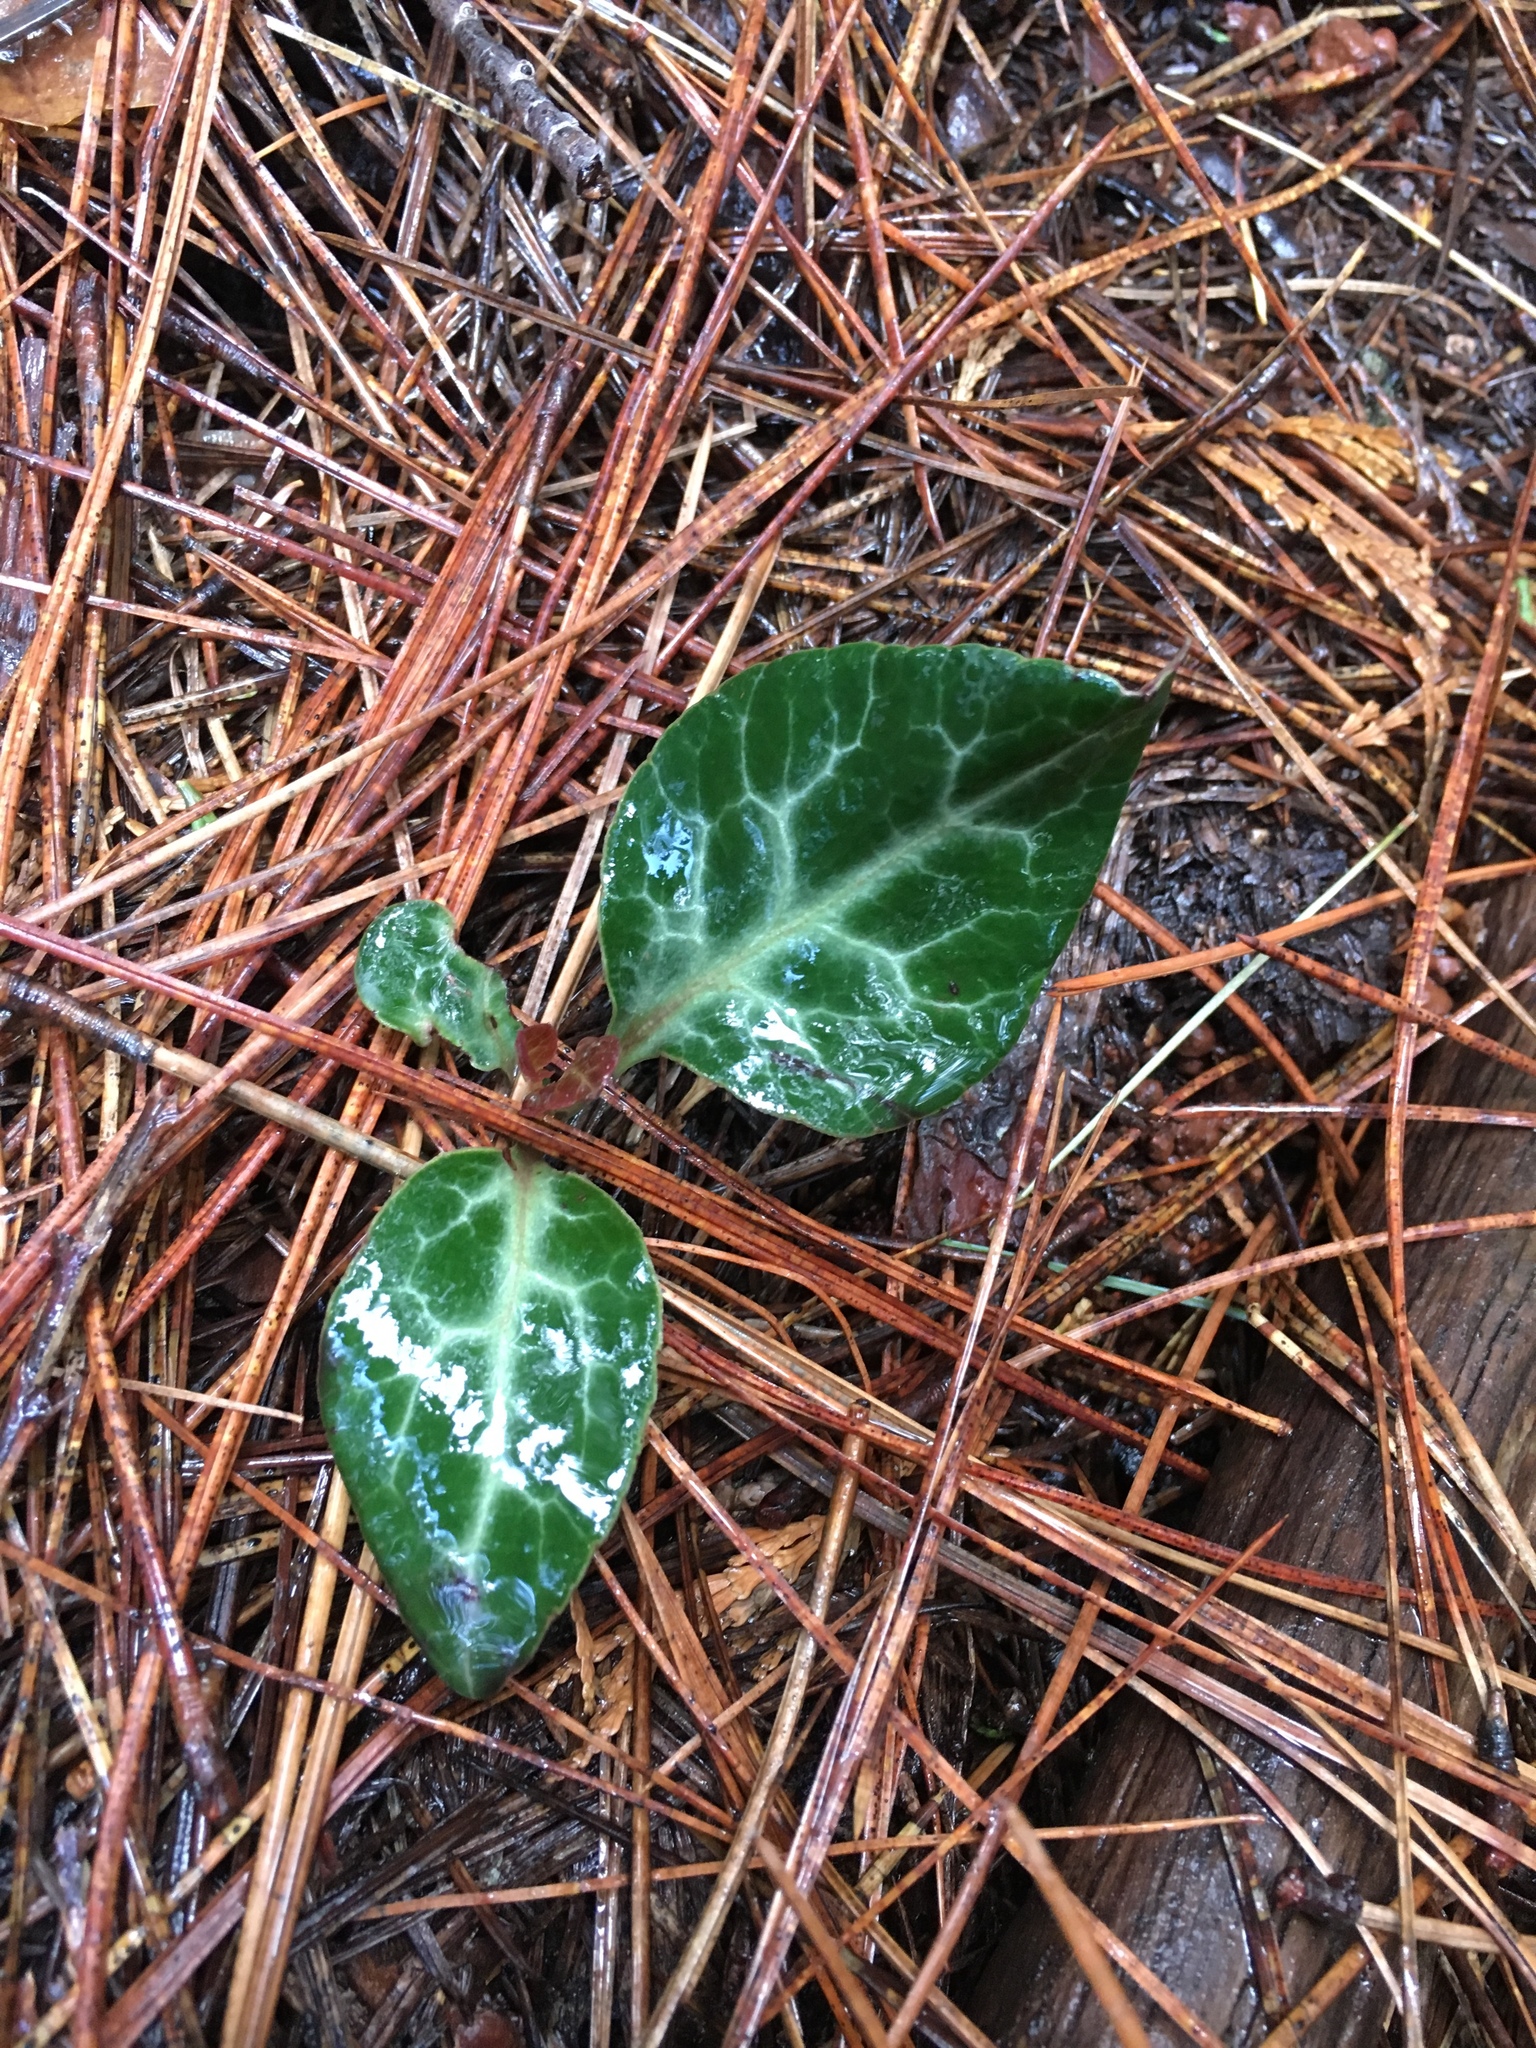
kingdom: Plantae
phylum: Tracheophyta
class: Magnoliopsida
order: Ericales
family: Ericaceae
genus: Pyrola
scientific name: Pyrola picta
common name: White-vein wintergreen
